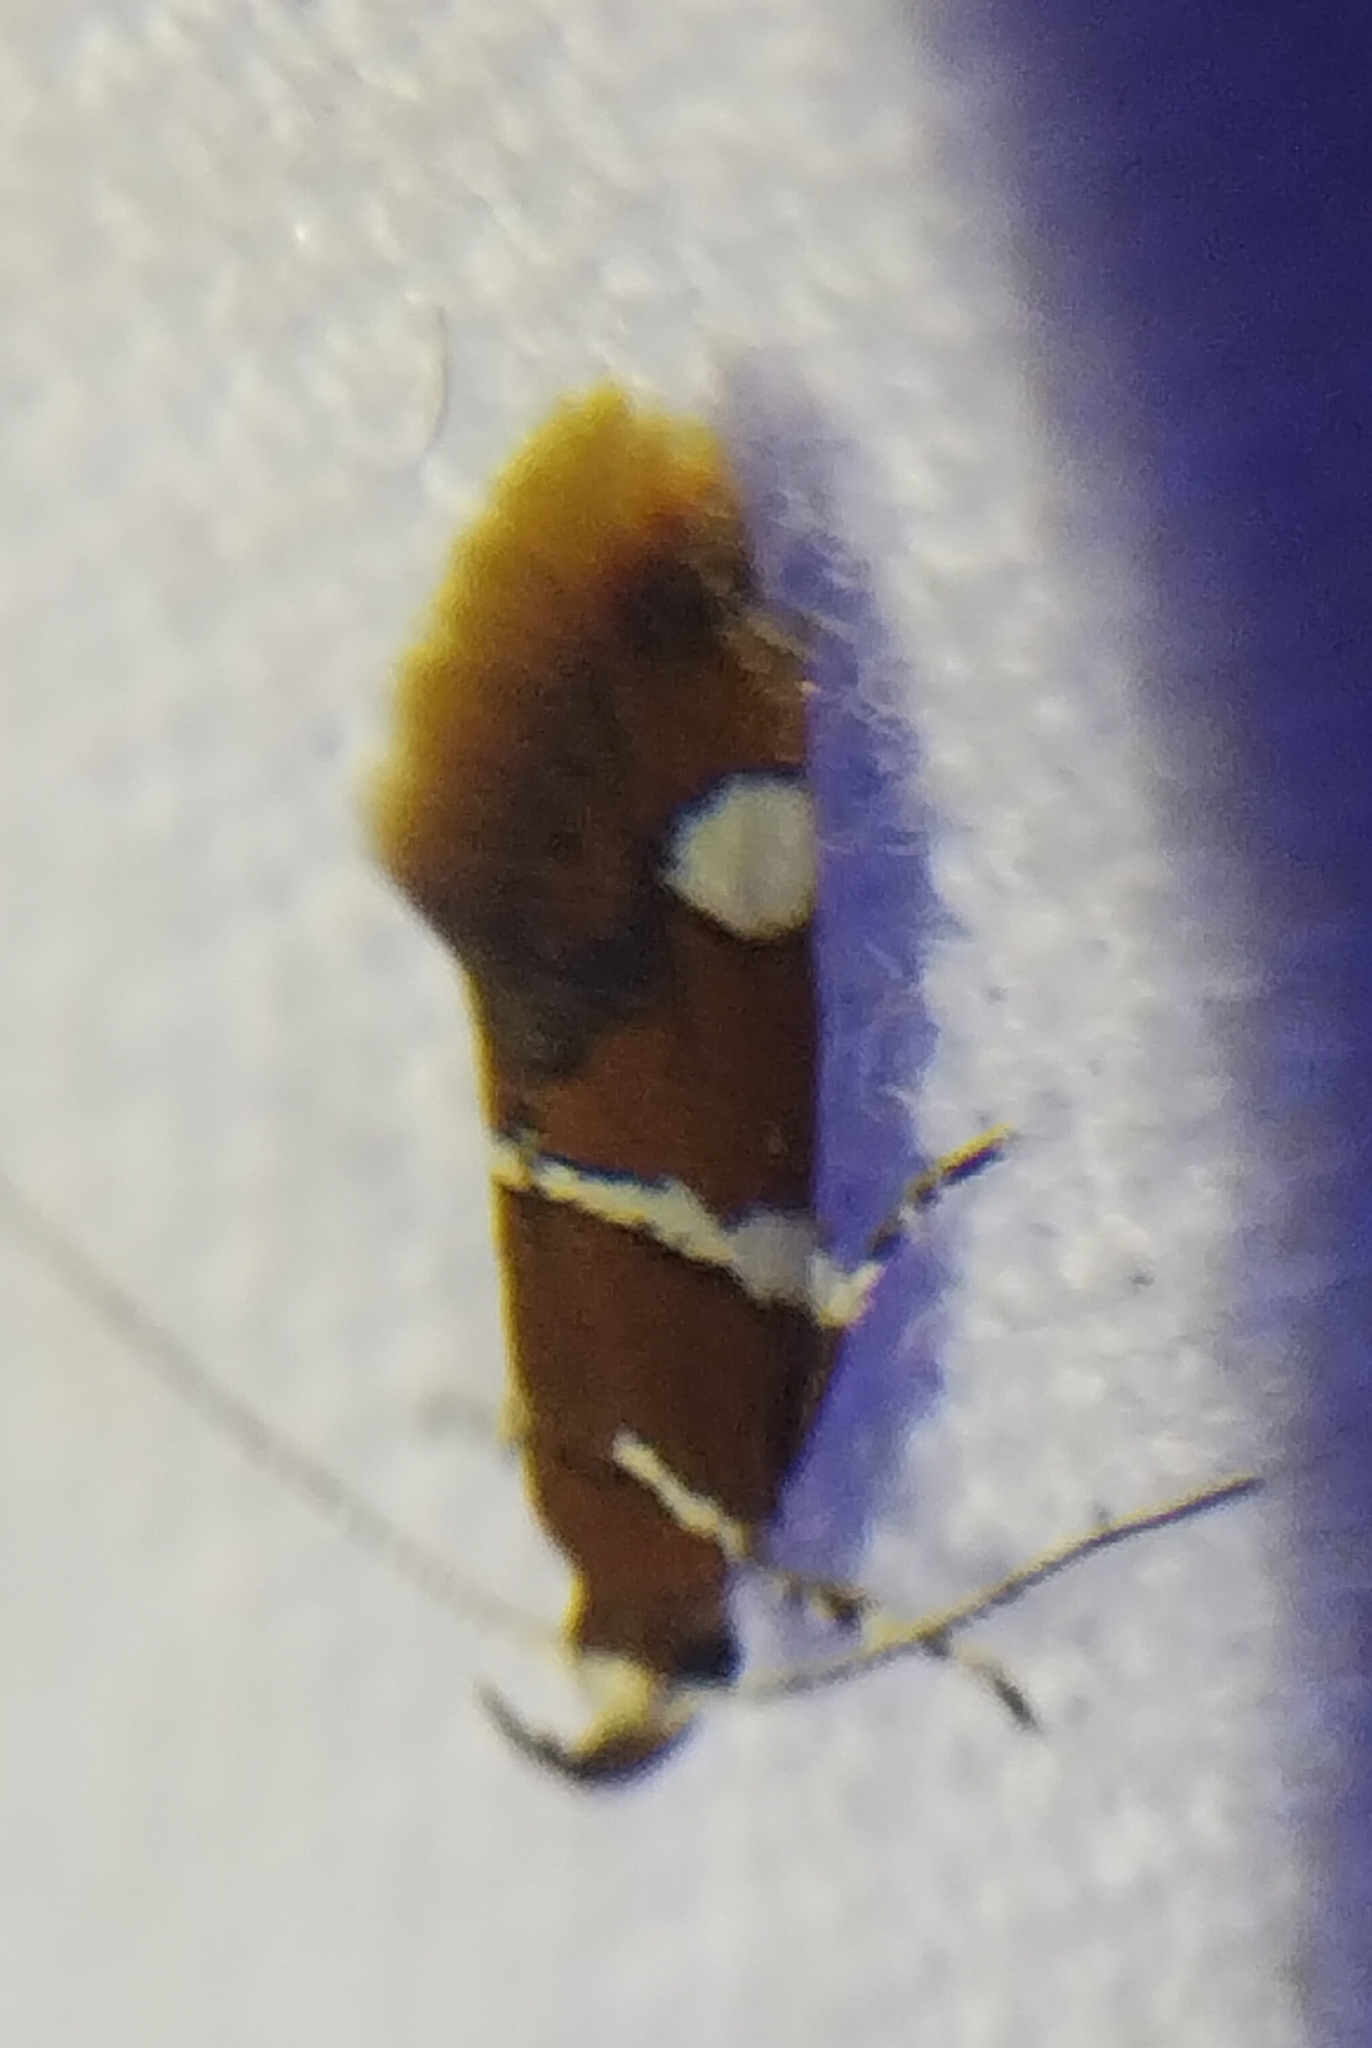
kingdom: Animalia
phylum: Arthropoda
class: Insecta
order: Lepidoptera
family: Oecophoridae
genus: Promalactis
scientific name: Promalactis suzukiella
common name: Moth
